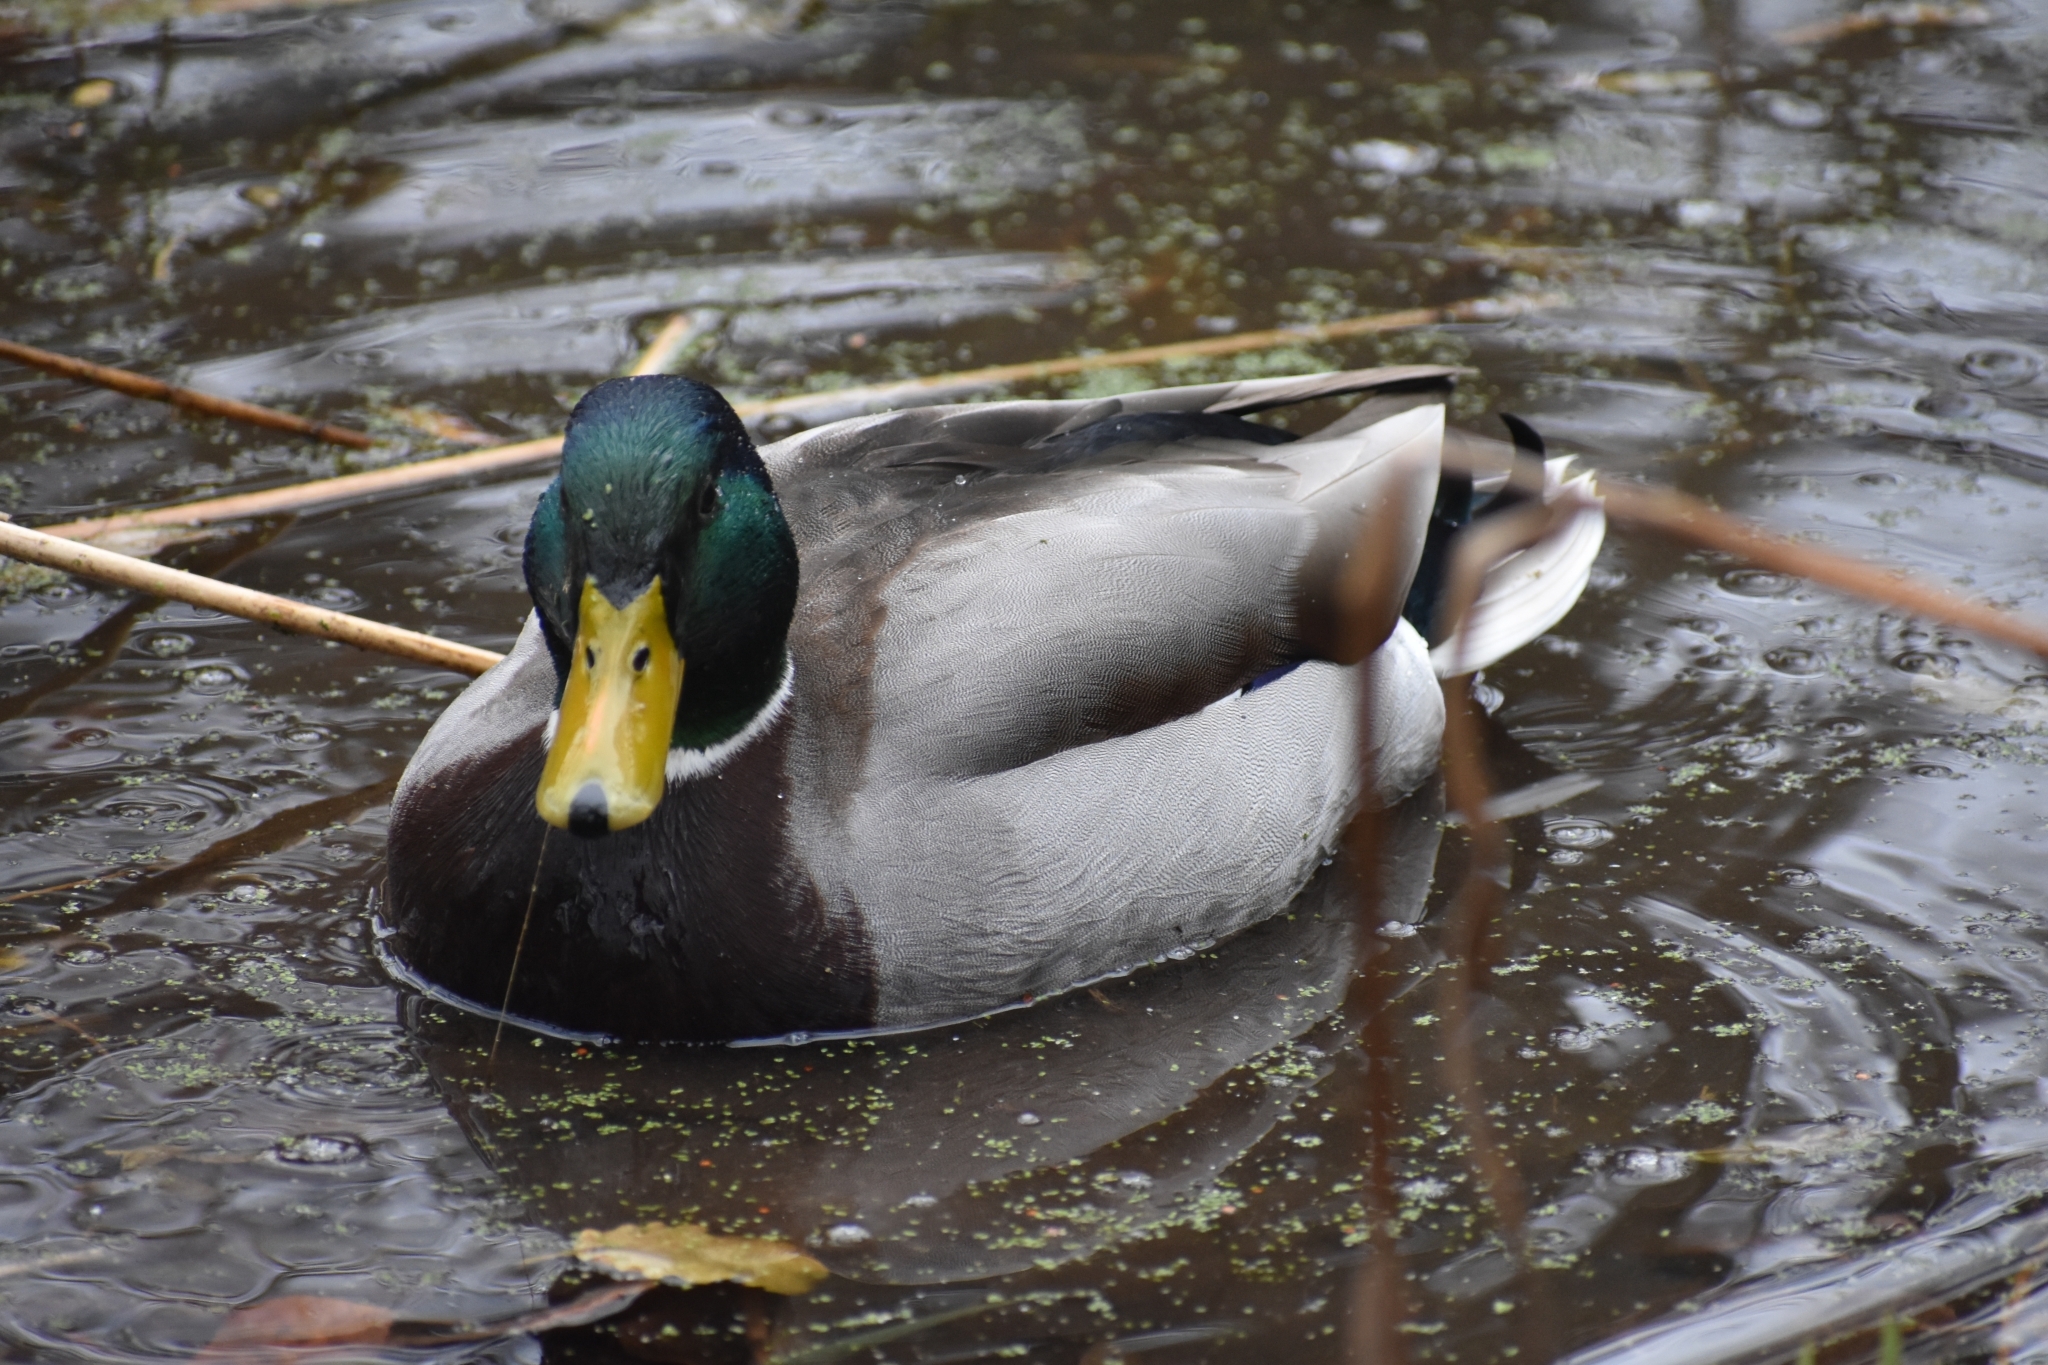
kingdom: Animalia
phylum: Chordata
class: Aves
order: Anseriformes
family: Anatidae
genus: Anas
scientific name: Anas platyrhynchos
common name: Mallard
